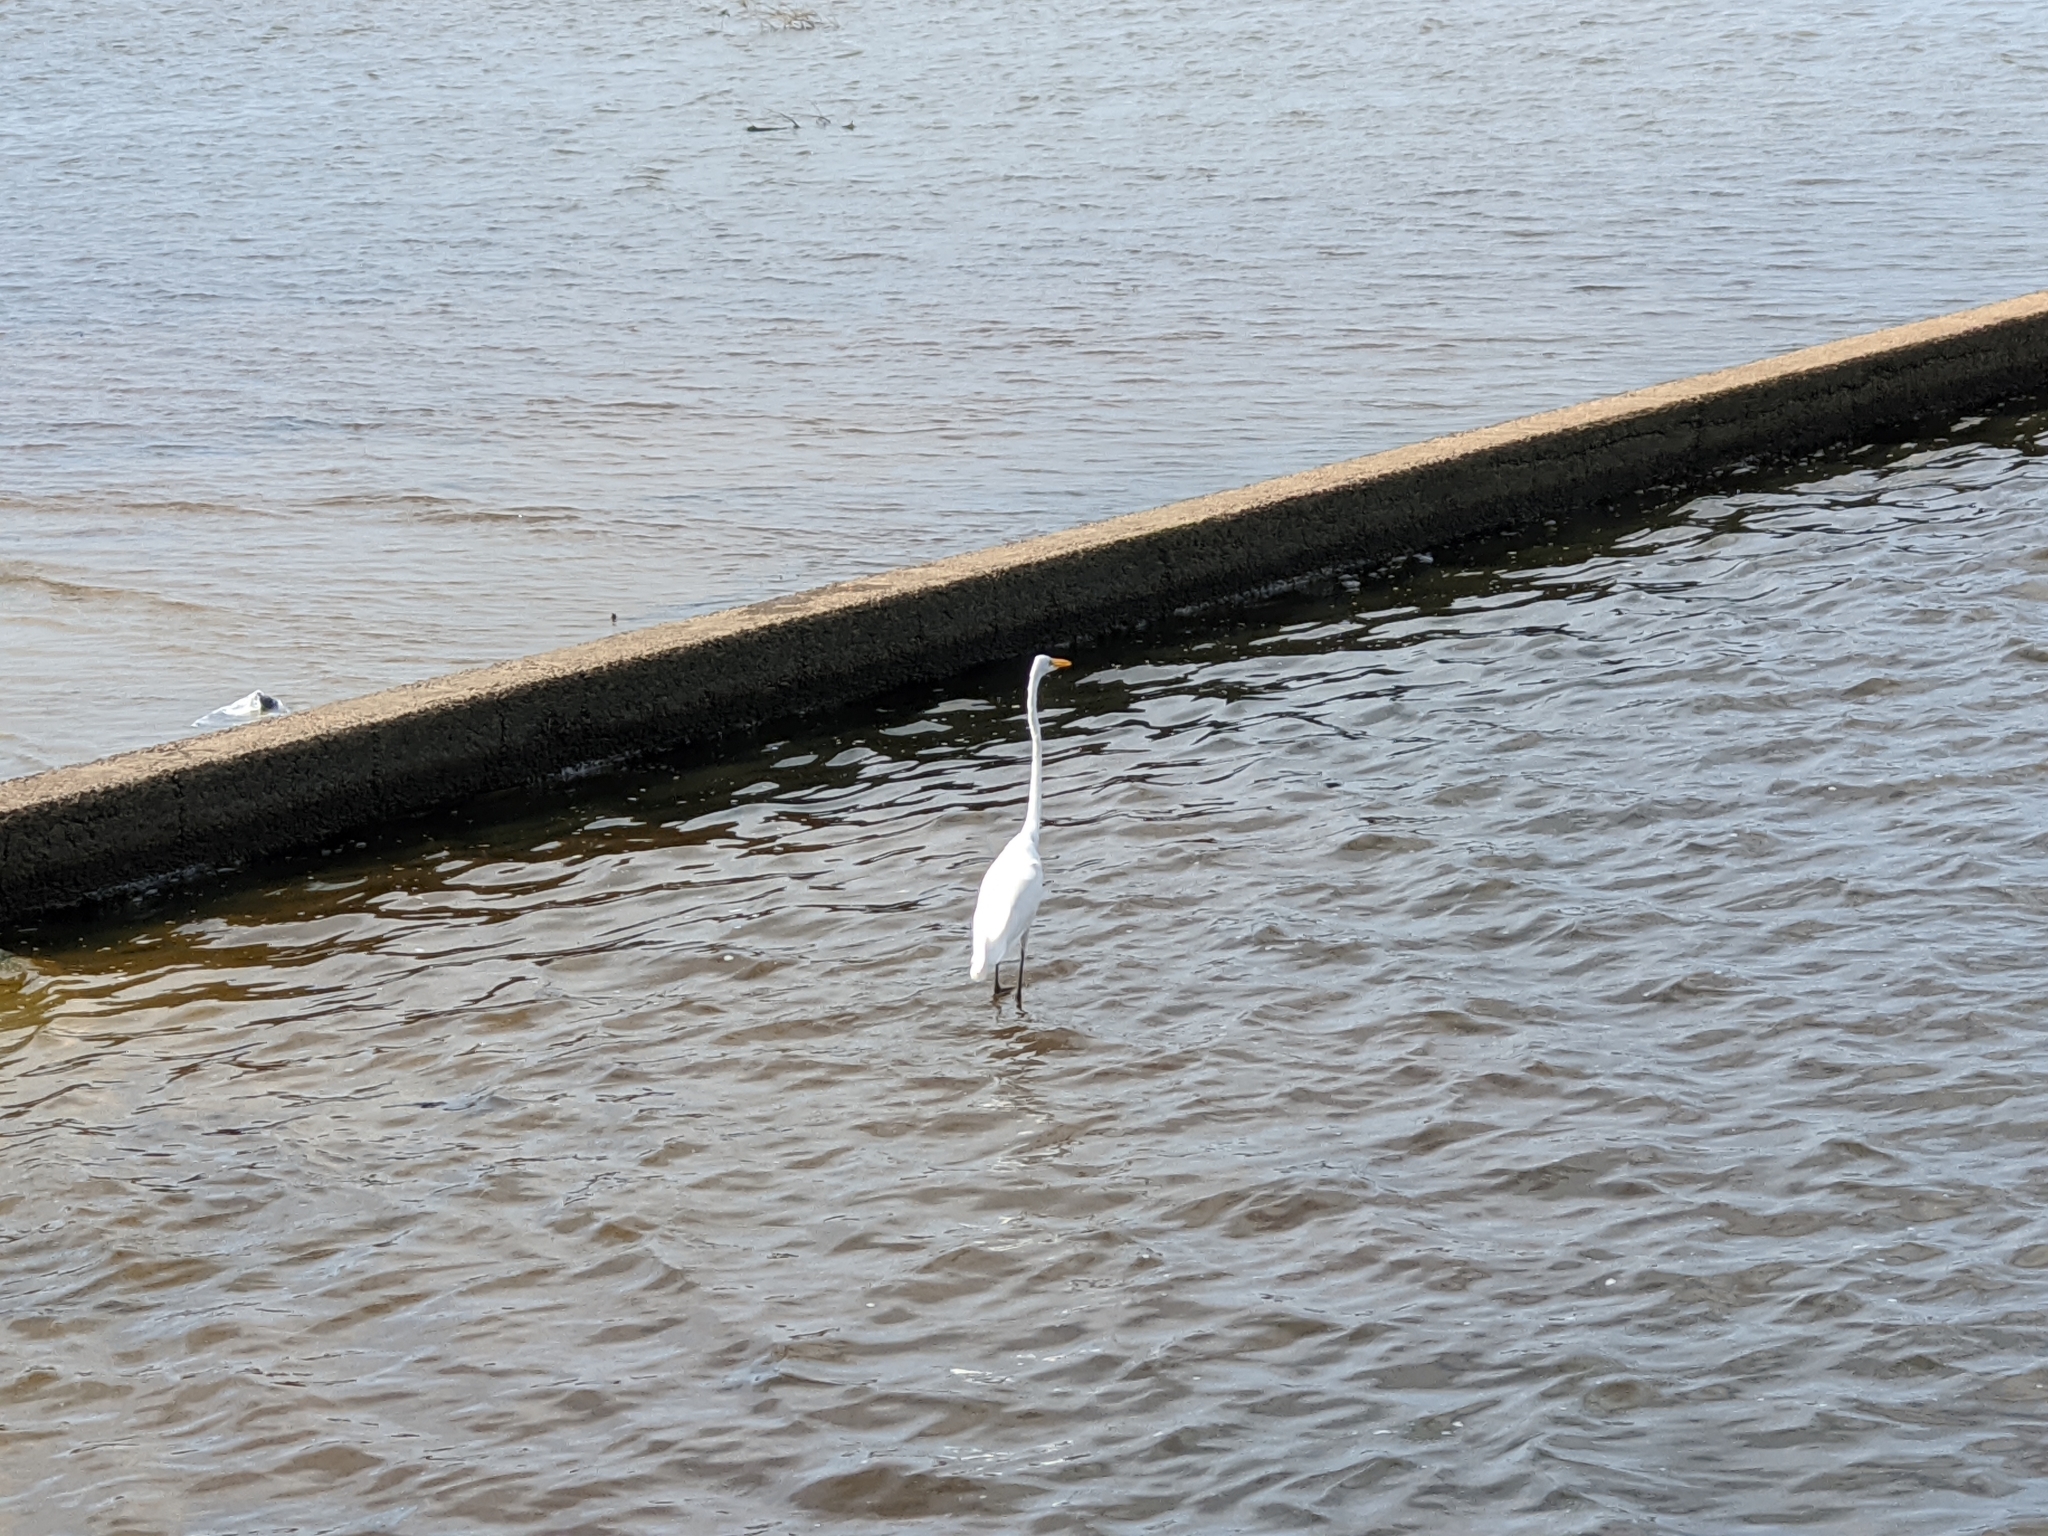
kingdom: Animalia
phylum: Chordata
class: Aves
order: Pelecaniformes
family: Ardeidae
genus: Ardea
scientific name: Ardea alba
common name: Great egret
